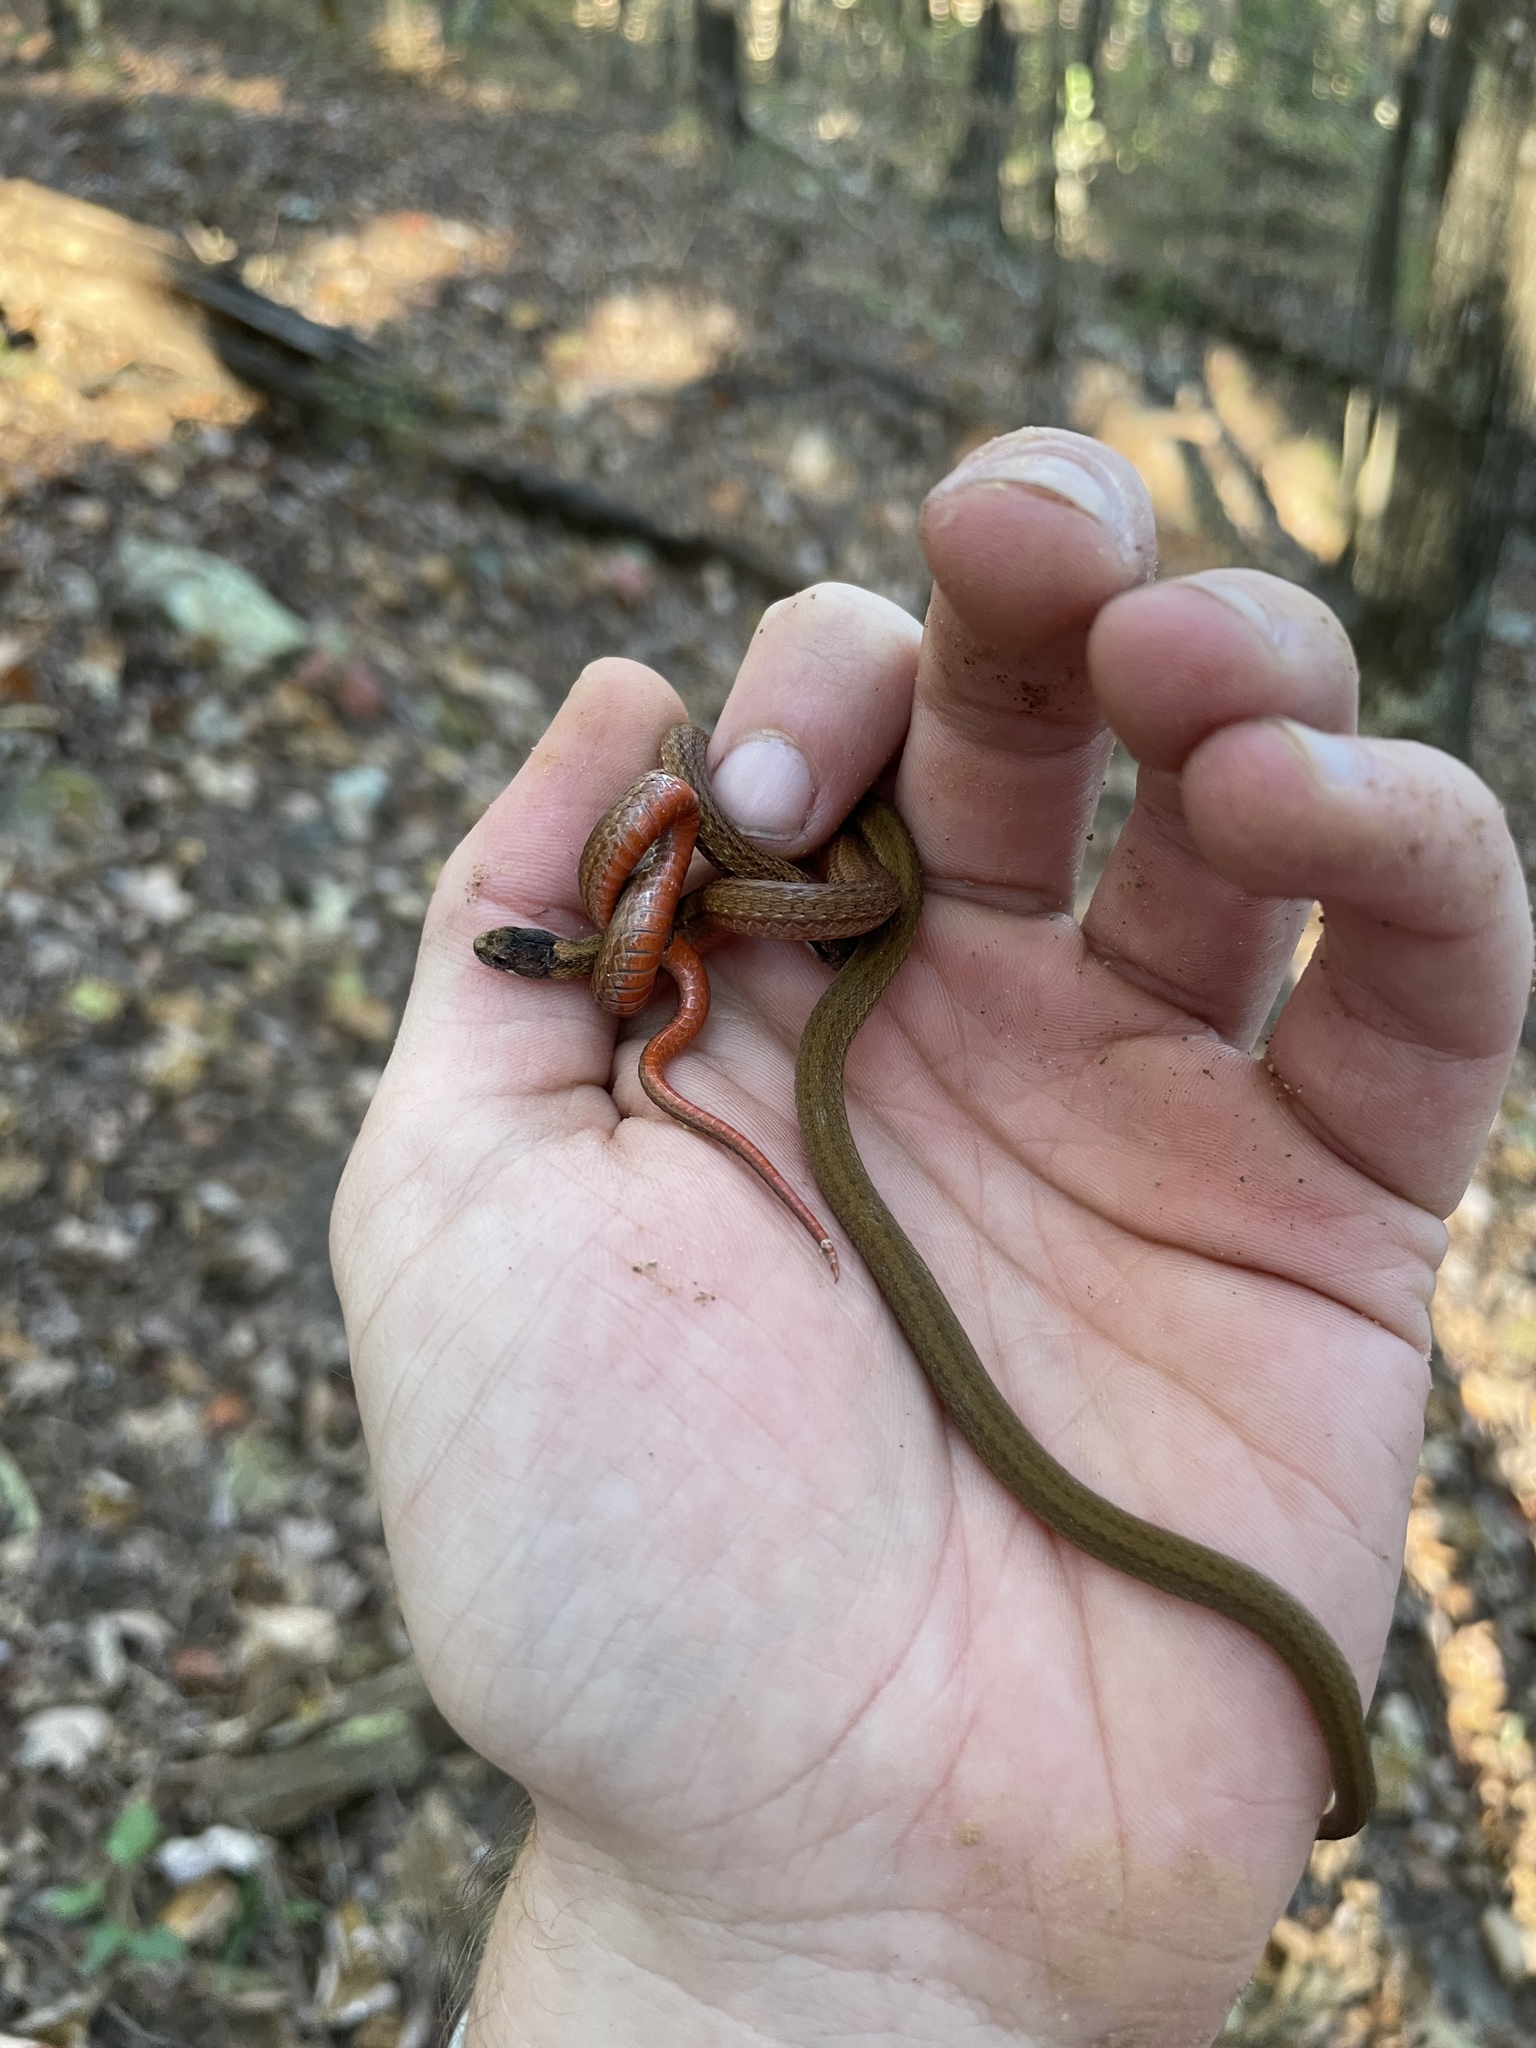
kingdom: Animalia
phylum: Chordata
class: Squamata
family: Colubridae
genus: Storeria
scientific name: Storeria occipitomaculata
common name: Redbelly snake
